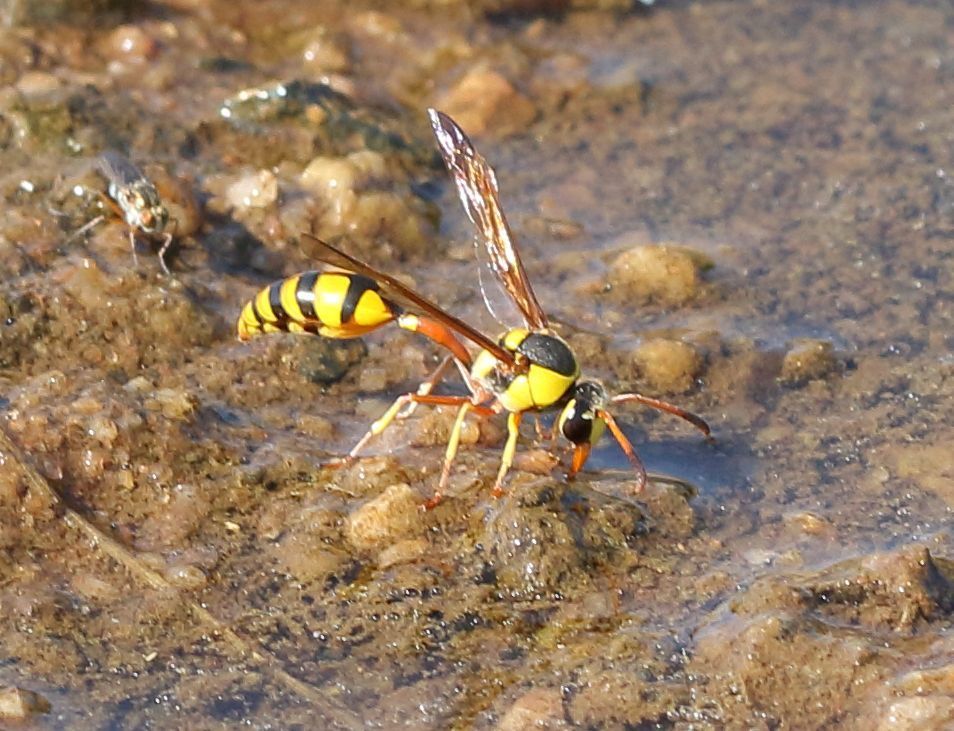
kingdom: Animalia
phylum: Arthropoda
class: Insecta
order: Hymenoptera
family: Eumenidae
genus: Delta
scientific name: Delta lepeleterii
